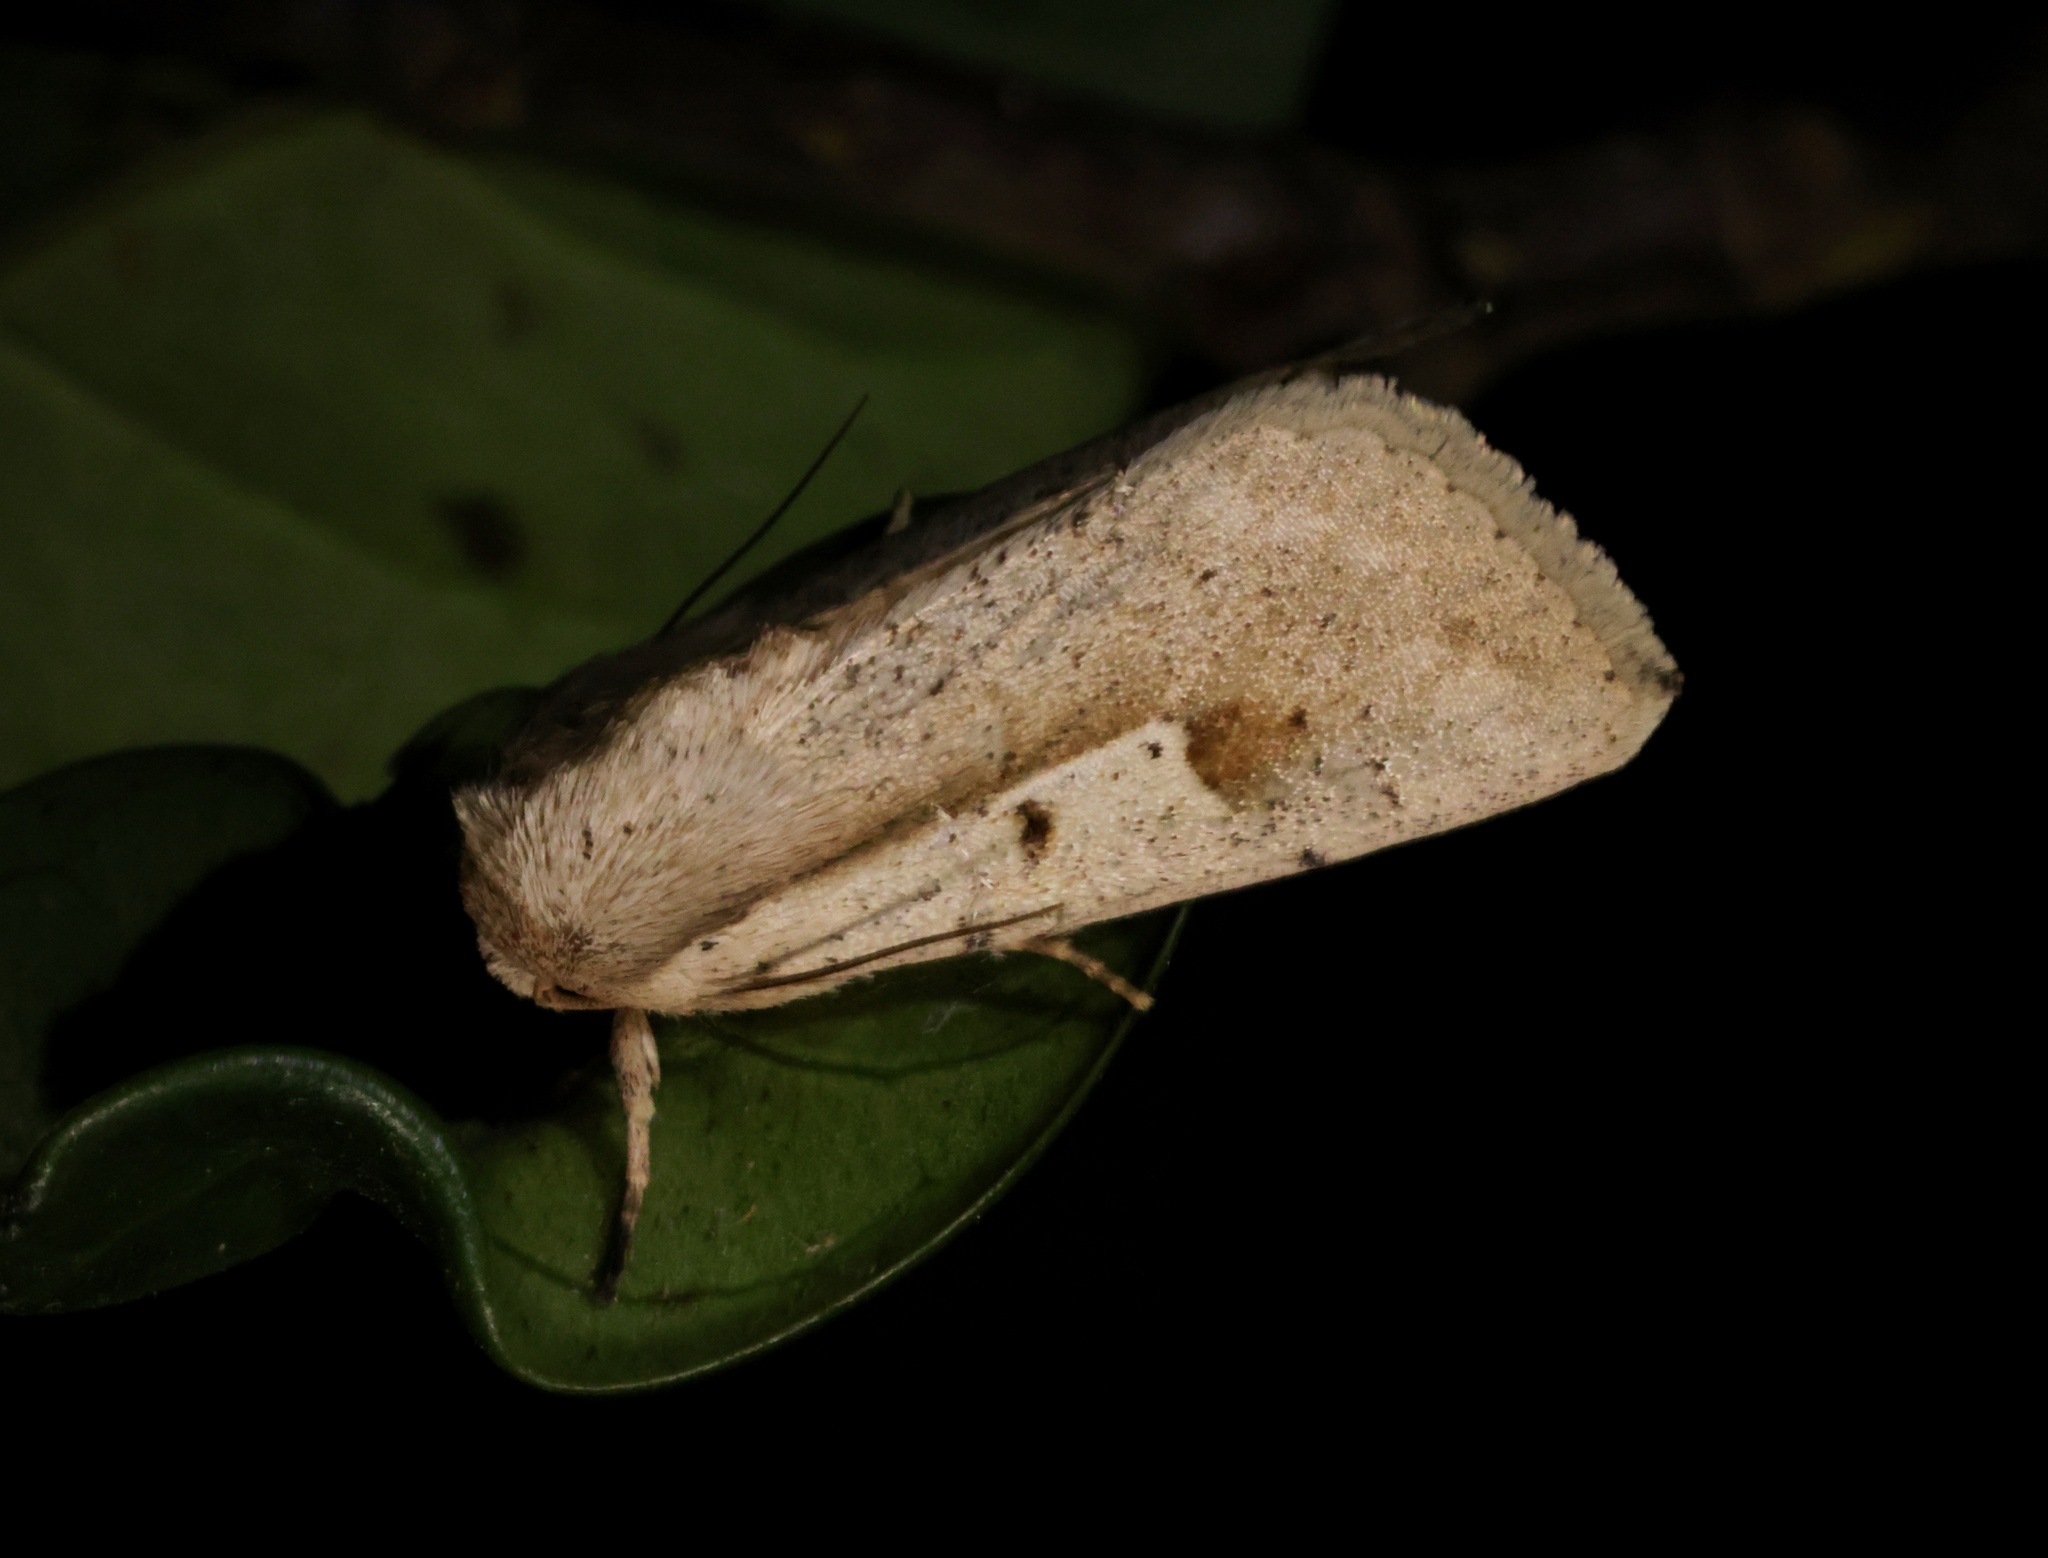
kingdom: Animalia
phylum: Arthropoda
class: Insecta
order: Lepidoptera
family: Noctuidae
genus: Leucania
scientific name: Leucania yu
